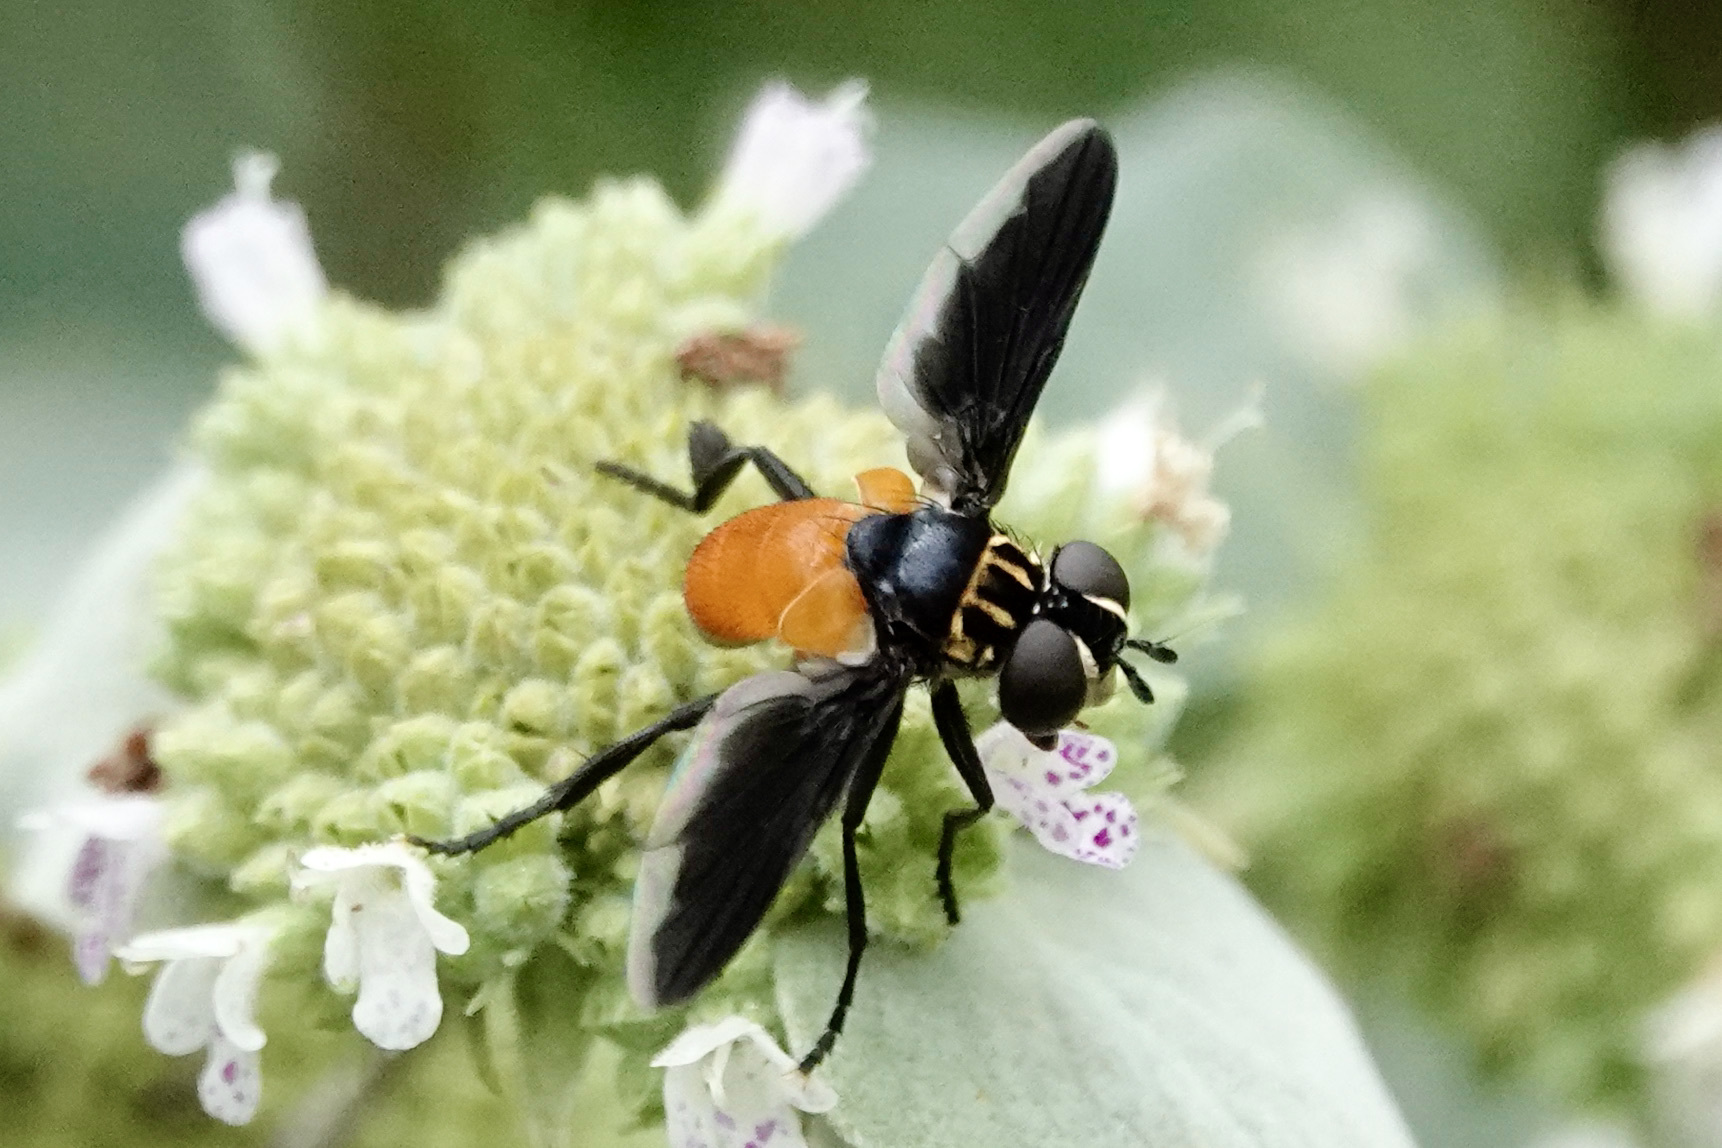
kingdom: Animalia
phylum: Arthropoda
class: Insecta
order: Diptera
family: Tachinidae
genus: Trichopoda
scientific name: Trichopoda pennipes
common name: Tachinid fly
